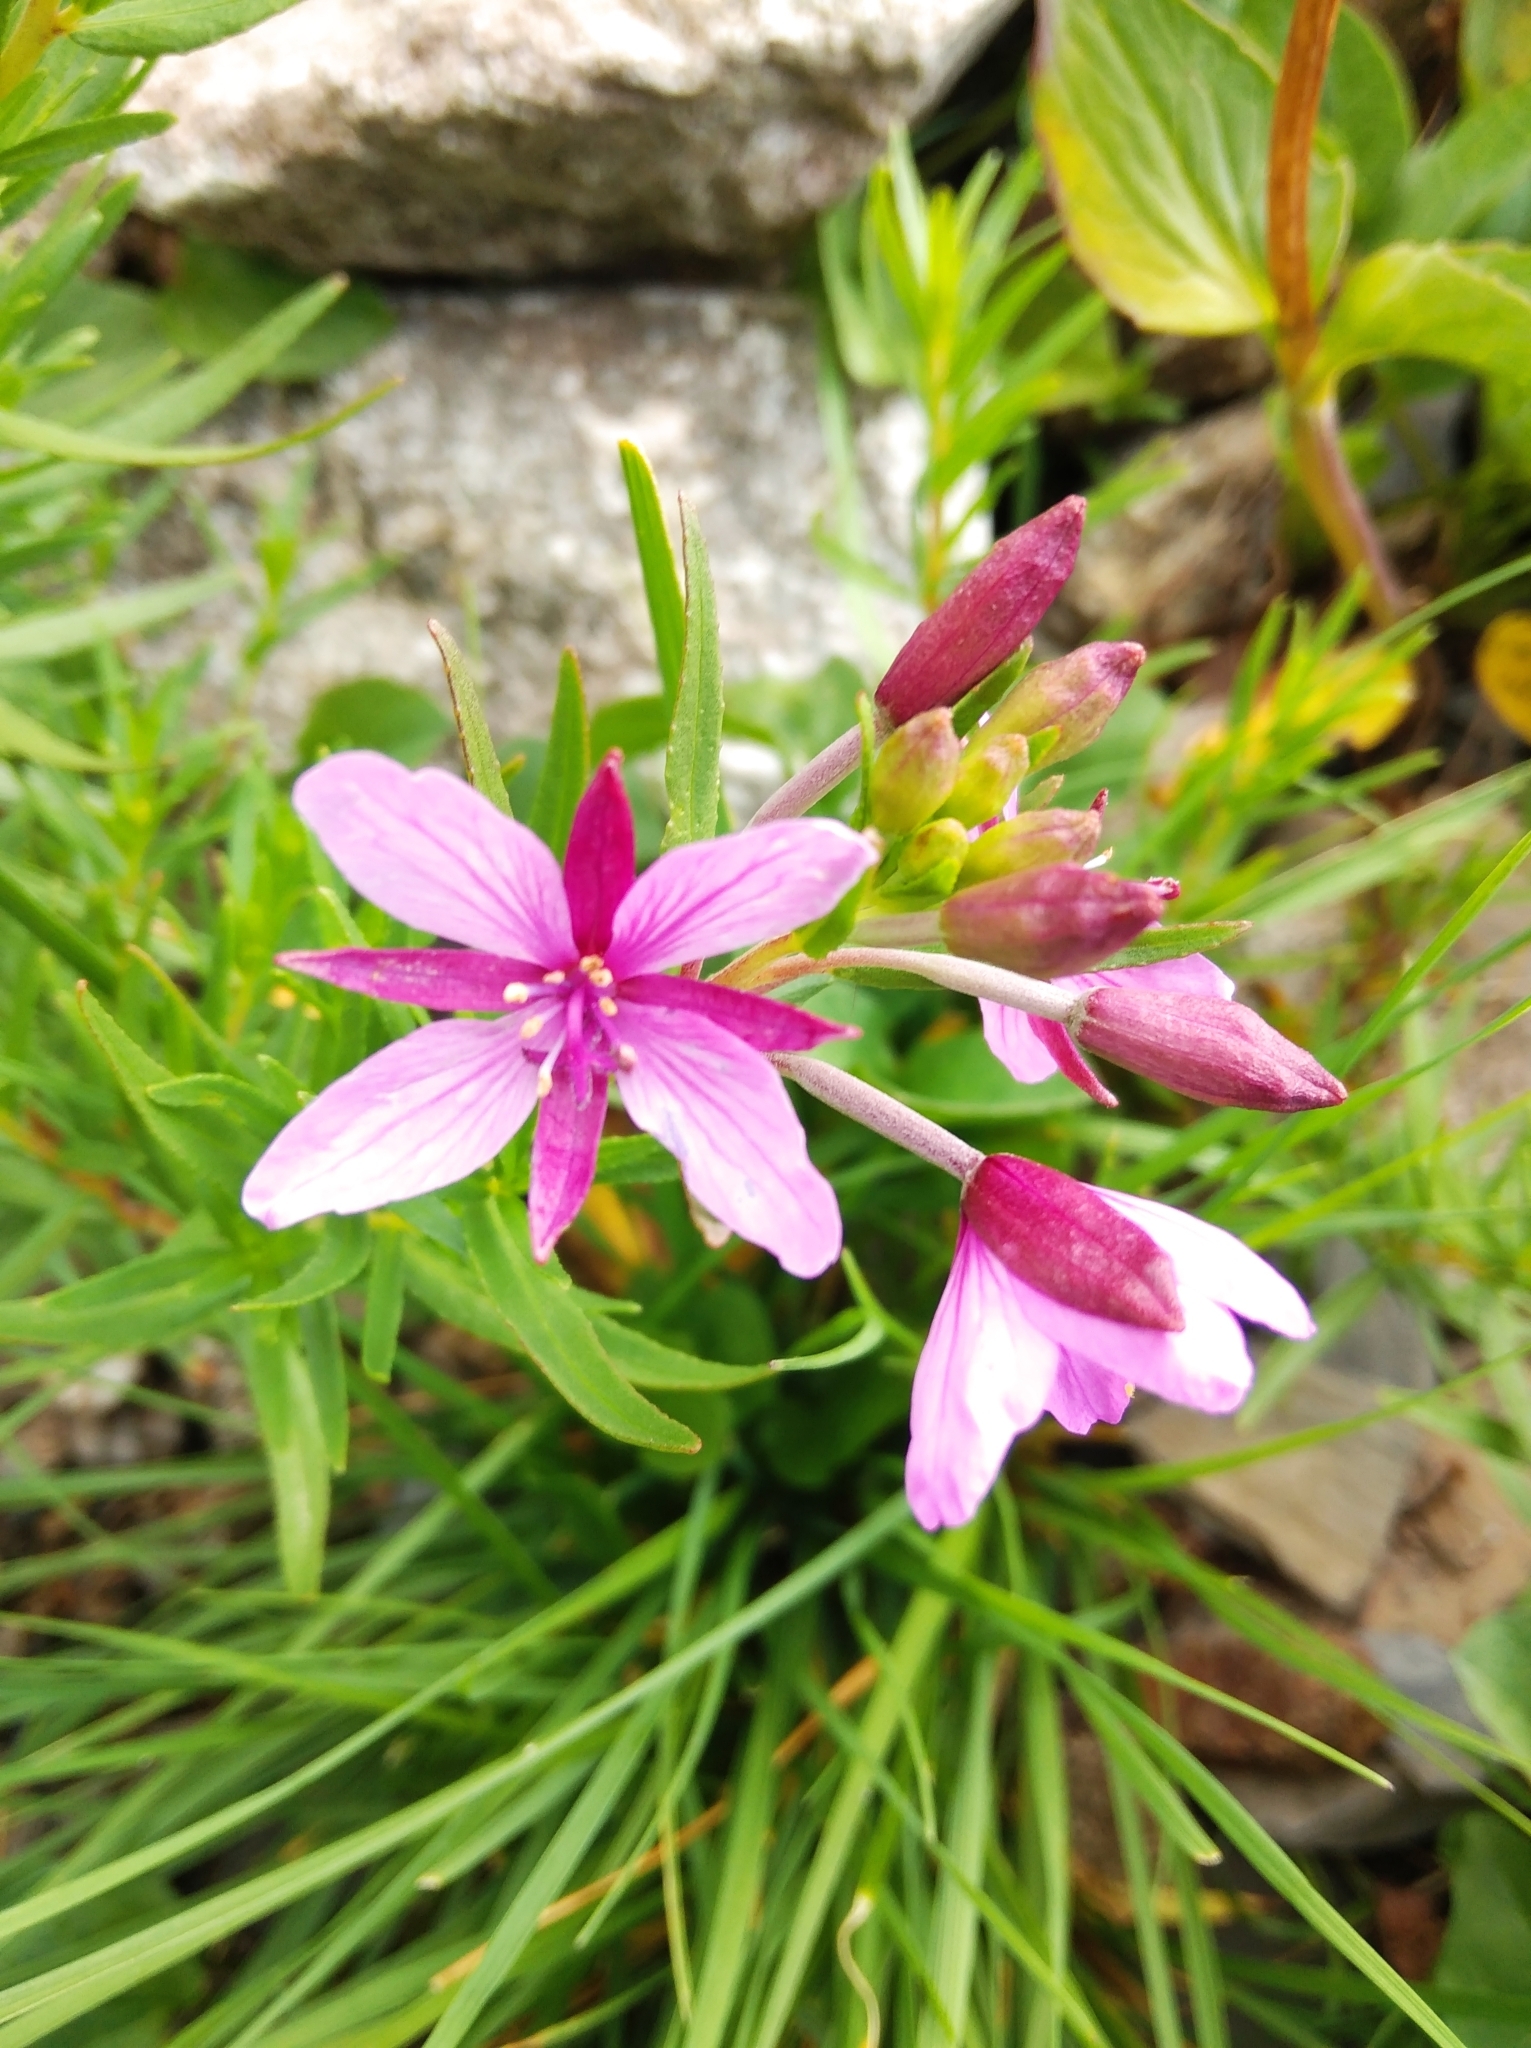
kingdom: Plantae
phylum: Tracheophyta
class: Magnoliopsida
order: Myrtales
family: Onagraceae
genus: Chamaenerion
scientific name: Chamaenerion fleischeri
